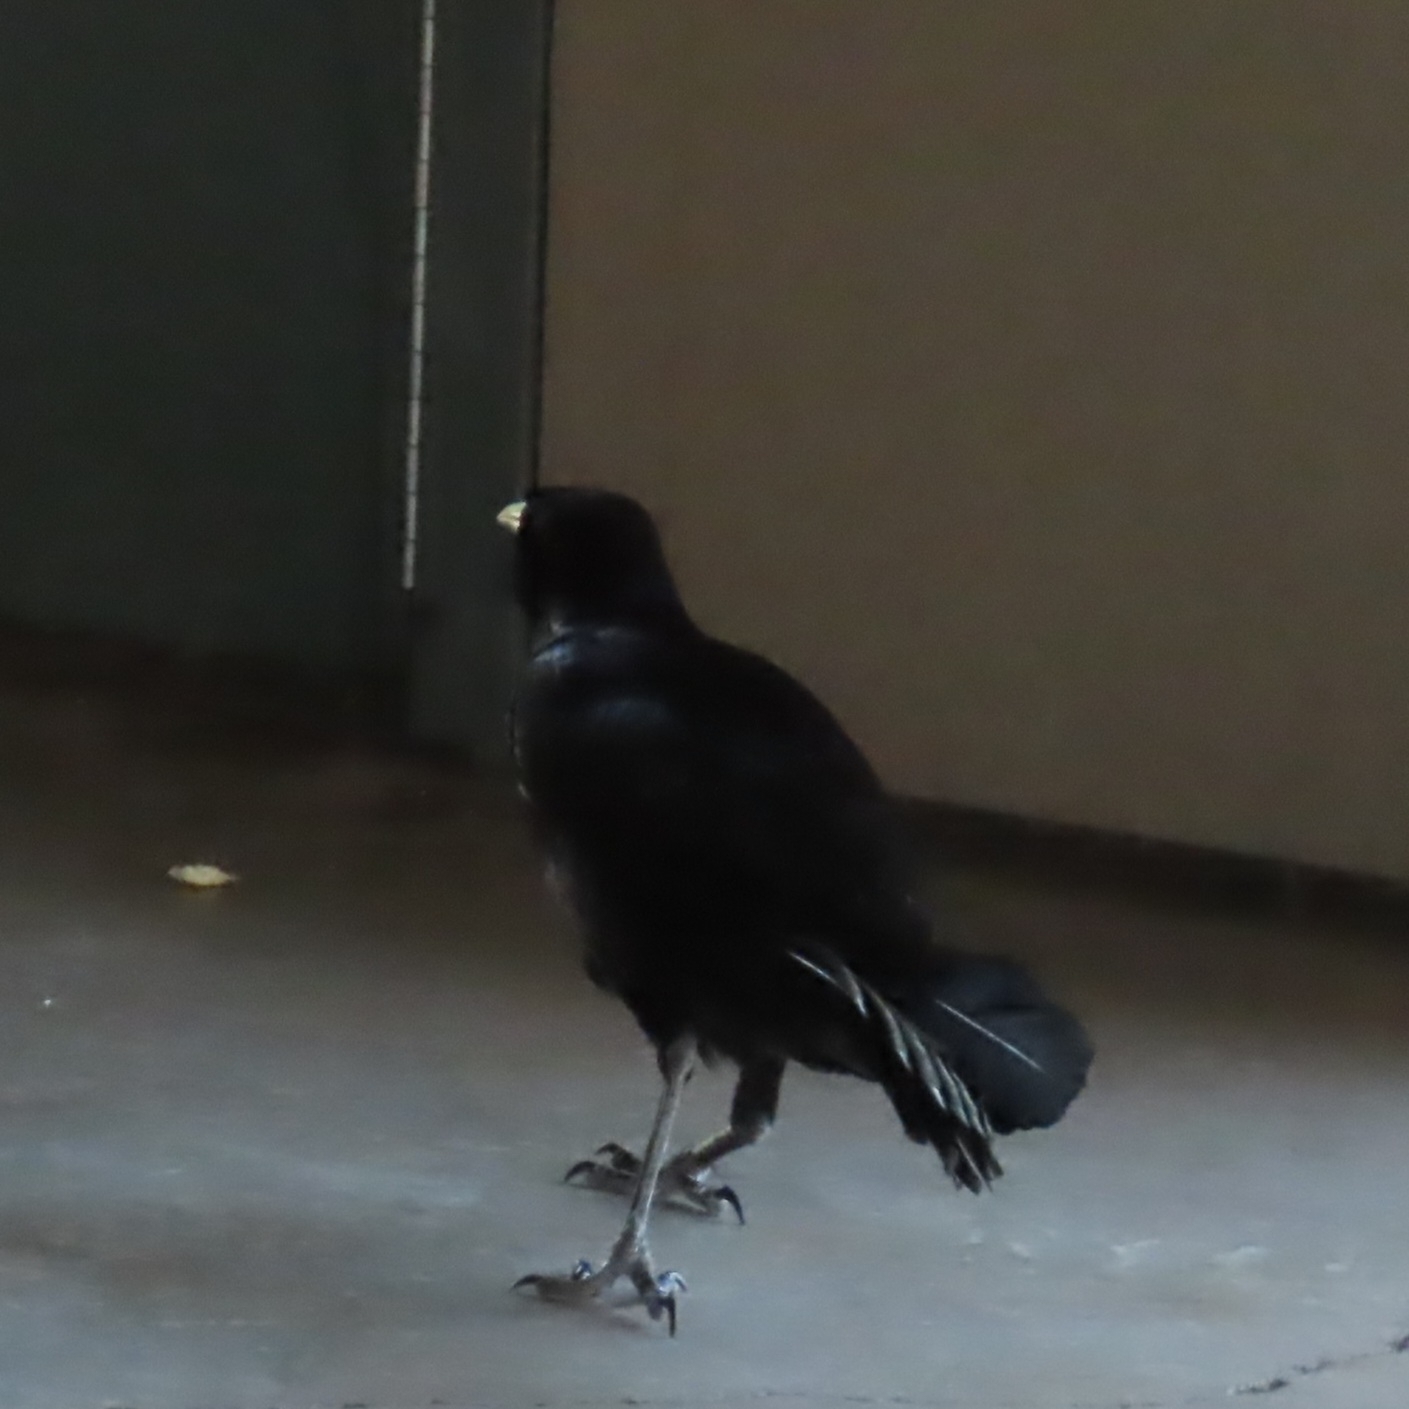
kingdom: Animalia
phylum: Chordata
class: Aves
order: Passeriformes
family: Icteridae
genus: Quiscalus
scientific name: Quiscalus mexicanus
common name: Great-tailed grackle
